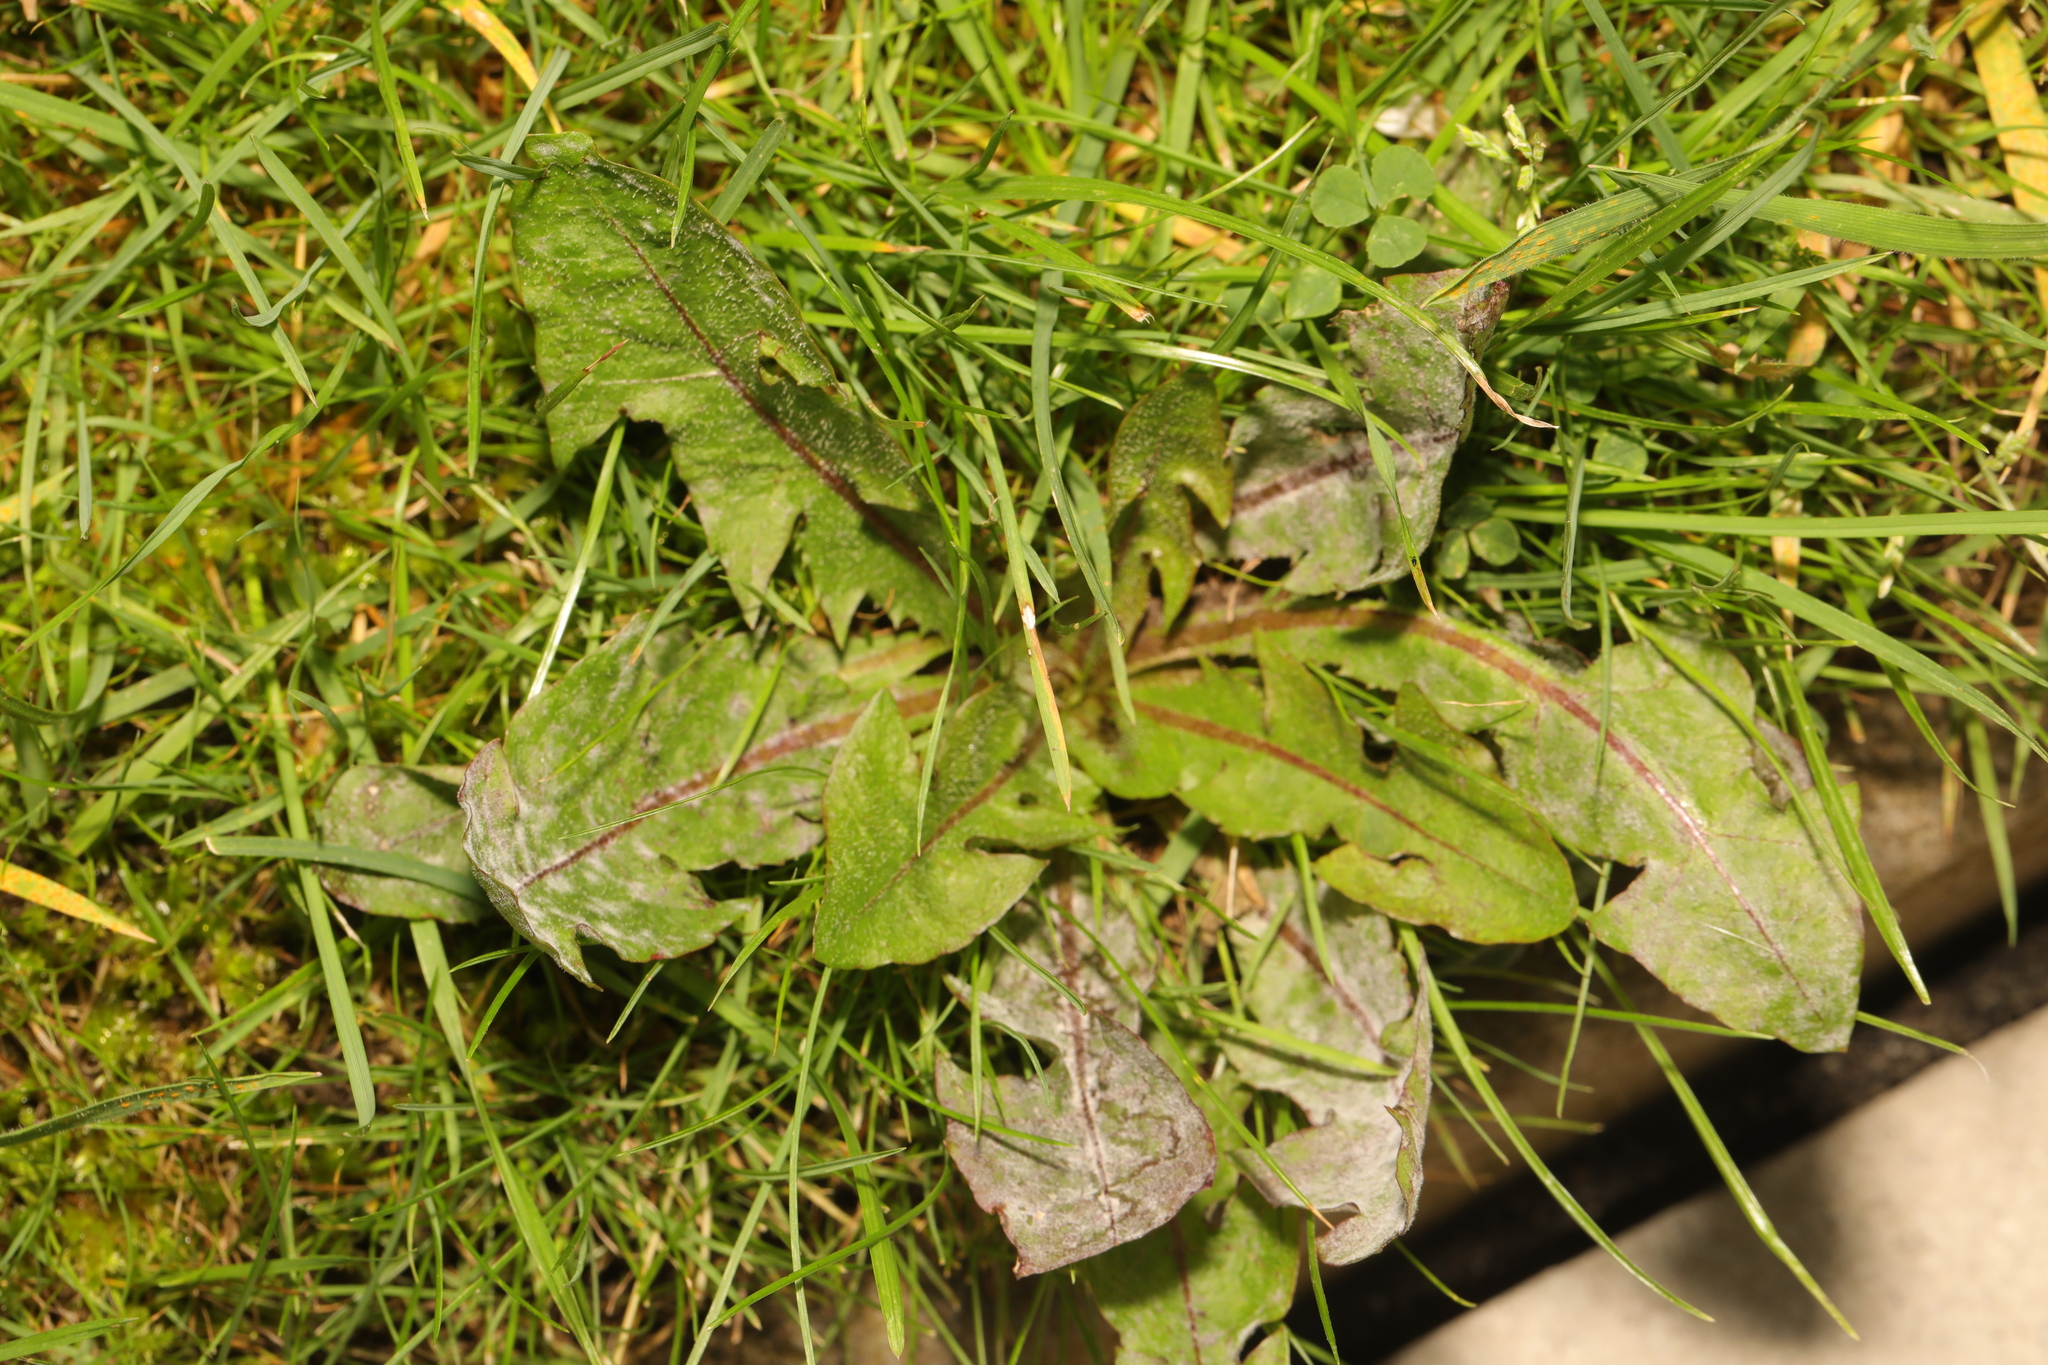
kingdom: Plantae
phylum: Tracheophyta
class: Magnoliopsida
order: Asterales
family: Asteraceae
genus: Taraxacum
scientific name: Taraxacum officinale
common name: Common dandelion
